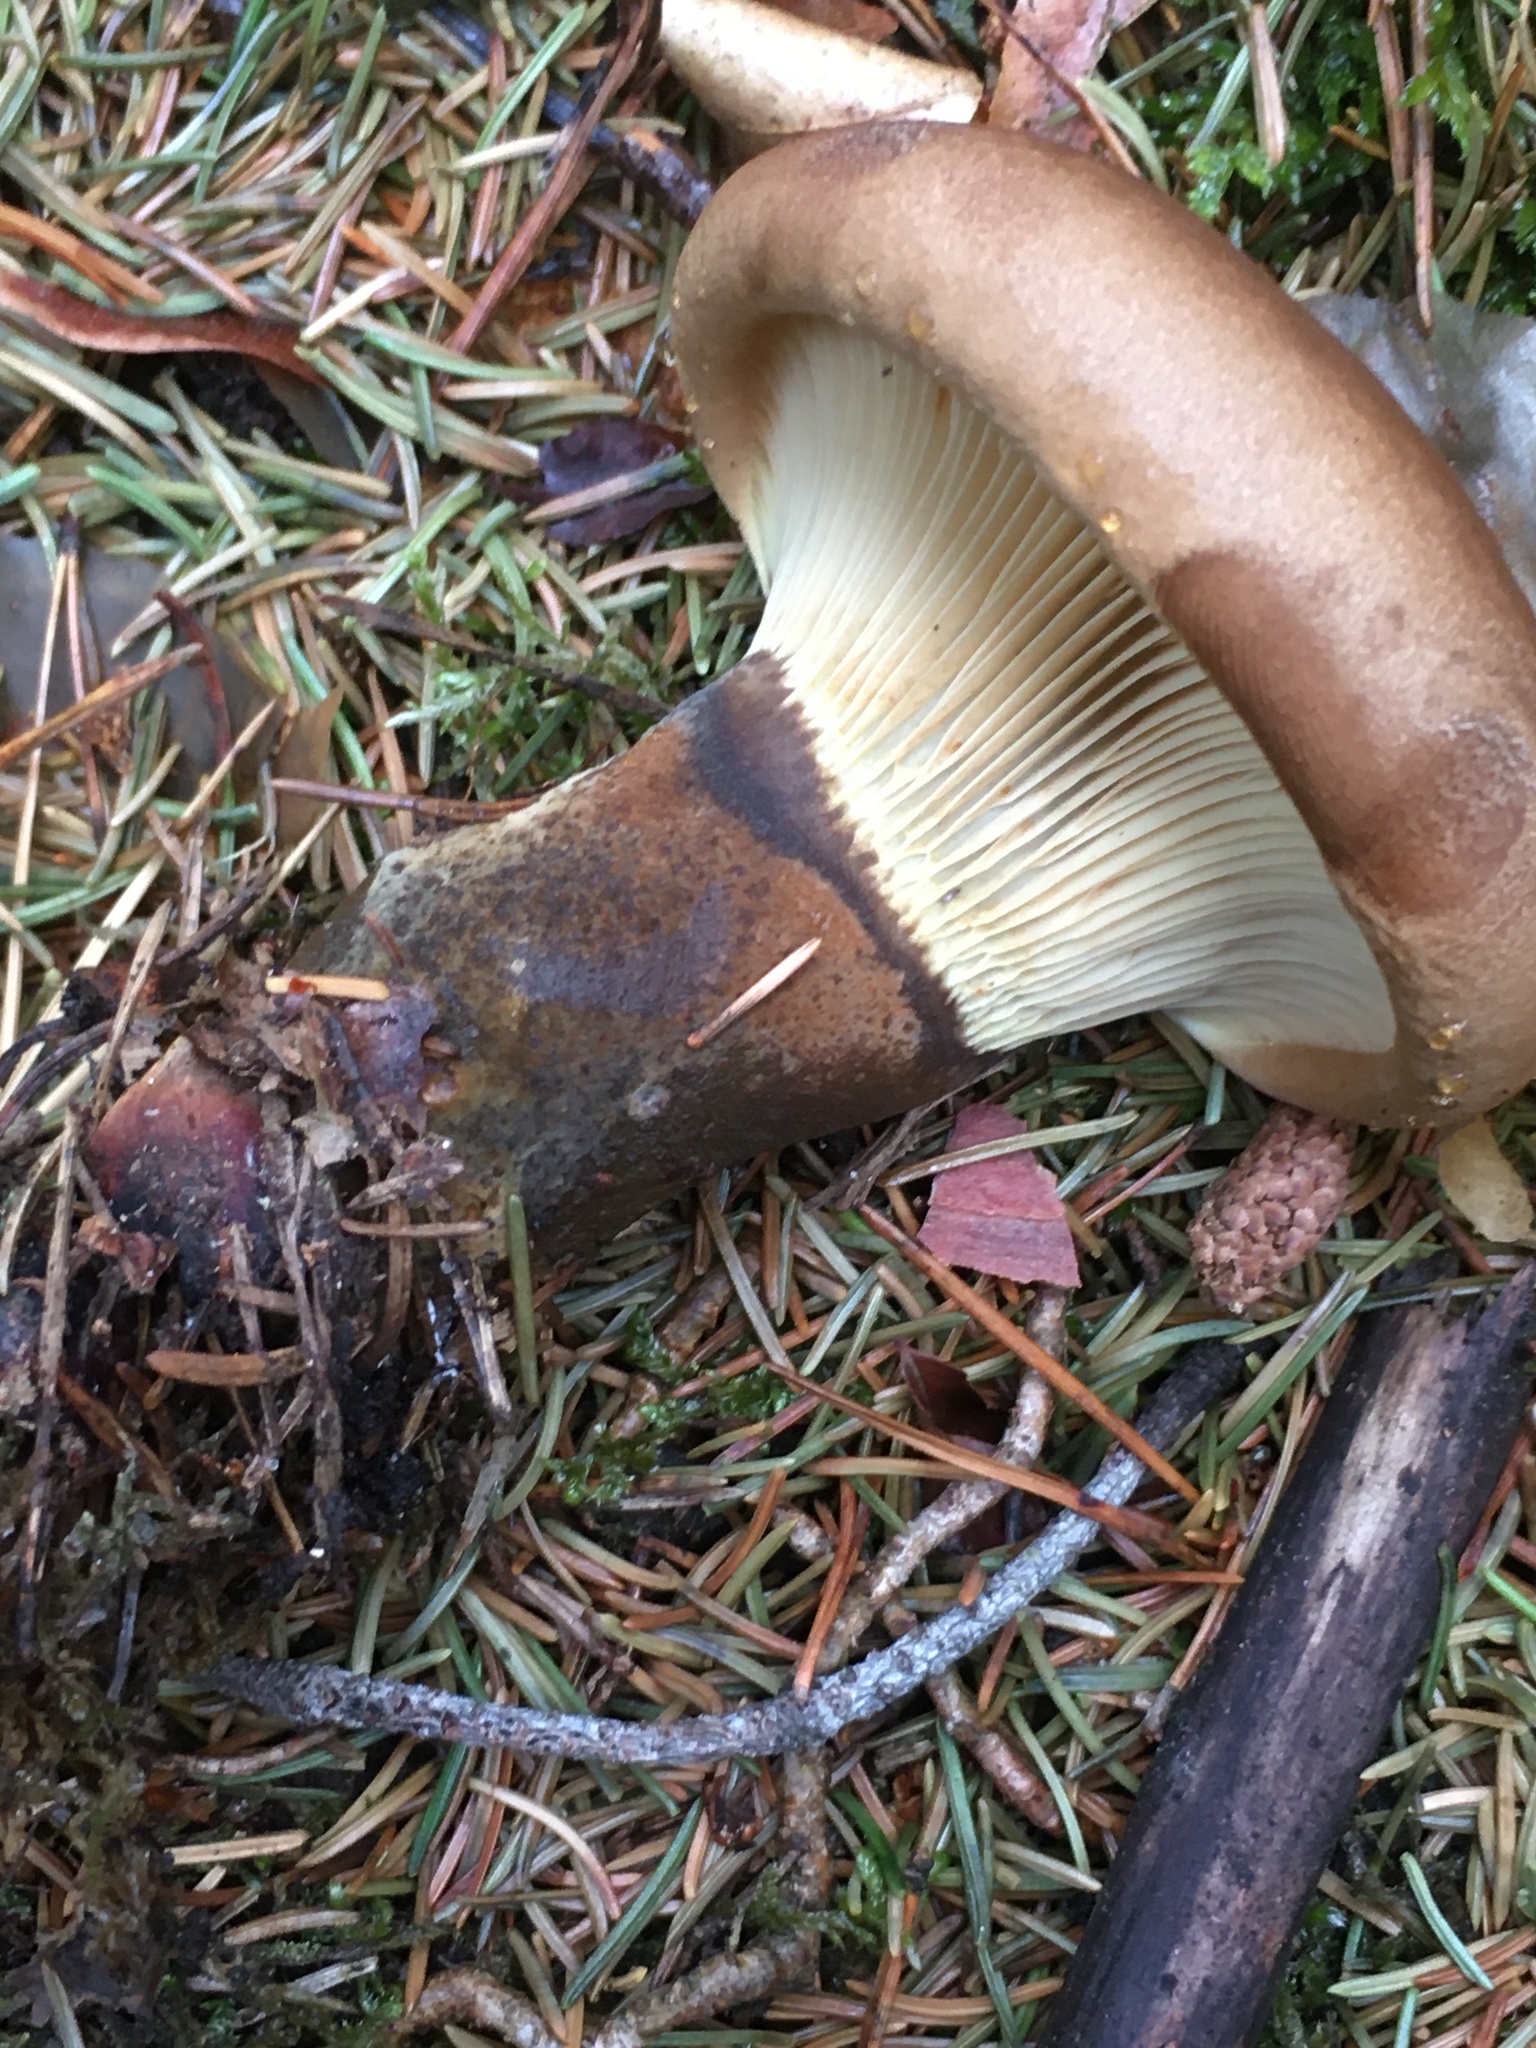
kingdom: Fungi
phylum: Basidiomycota
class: Agaricomycetes
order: Boletales
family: Tapinellaceae
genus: Tapinella
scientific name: Tapinella atrotomentosa
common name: Velvet rollrim
